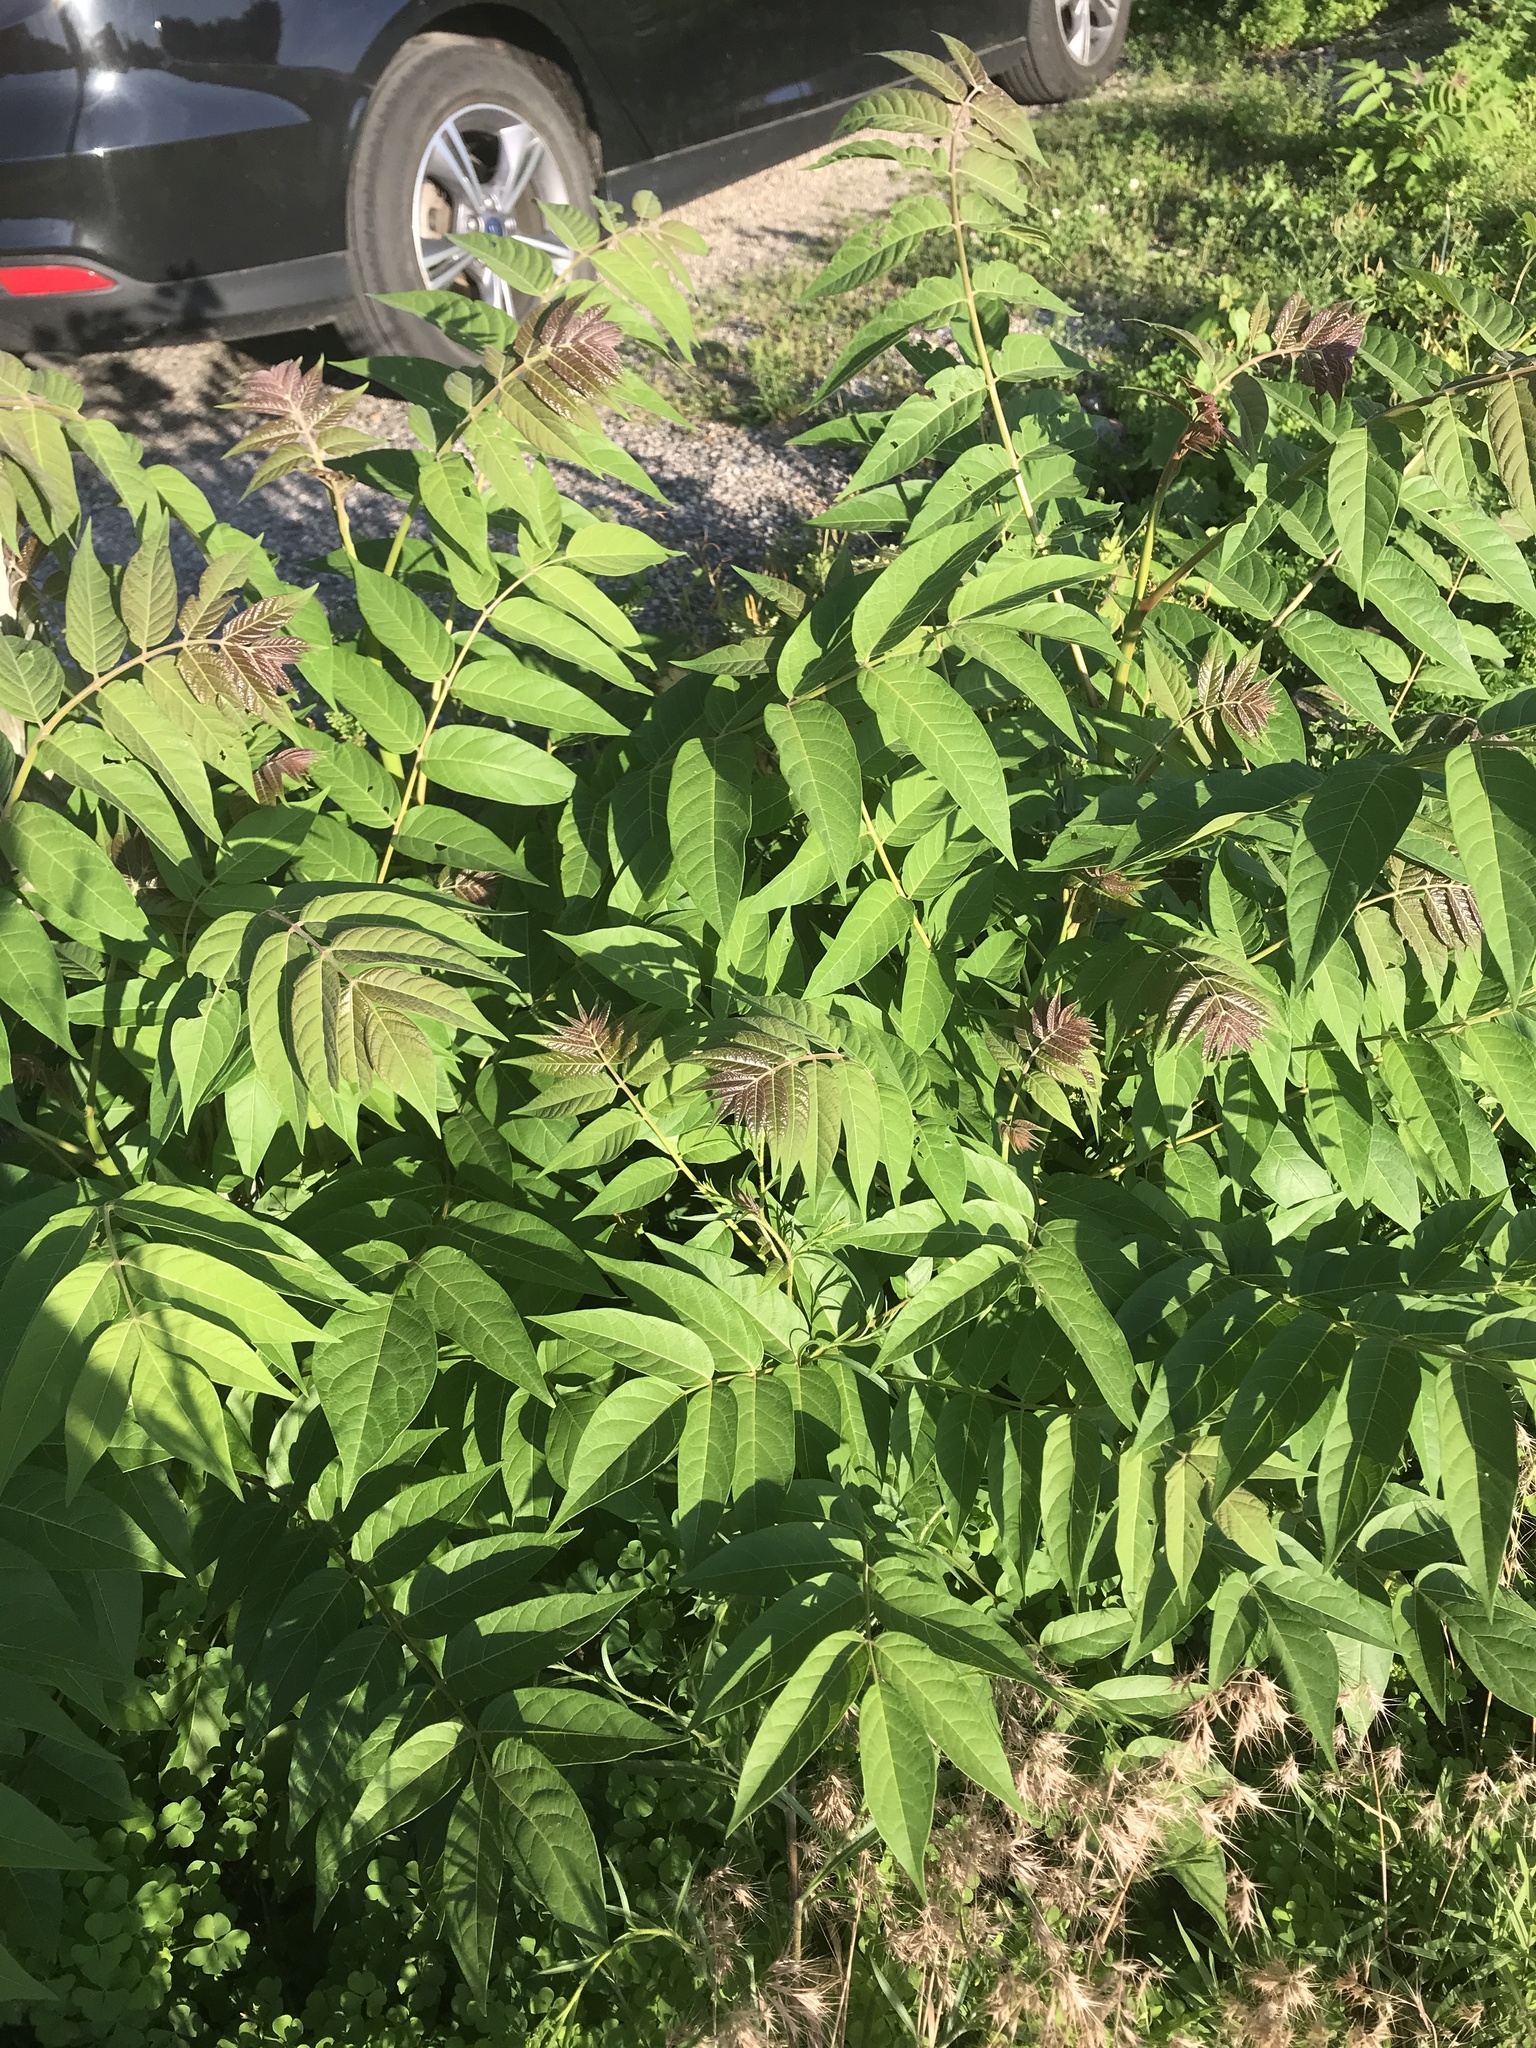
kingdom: Plantae
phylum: Tracheophyta
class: Magnoliopsida
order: Sapindales
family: Simaroubaceae
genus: Ailanthus
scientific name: Ailanthus altissima
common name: Tree-of-heaven
